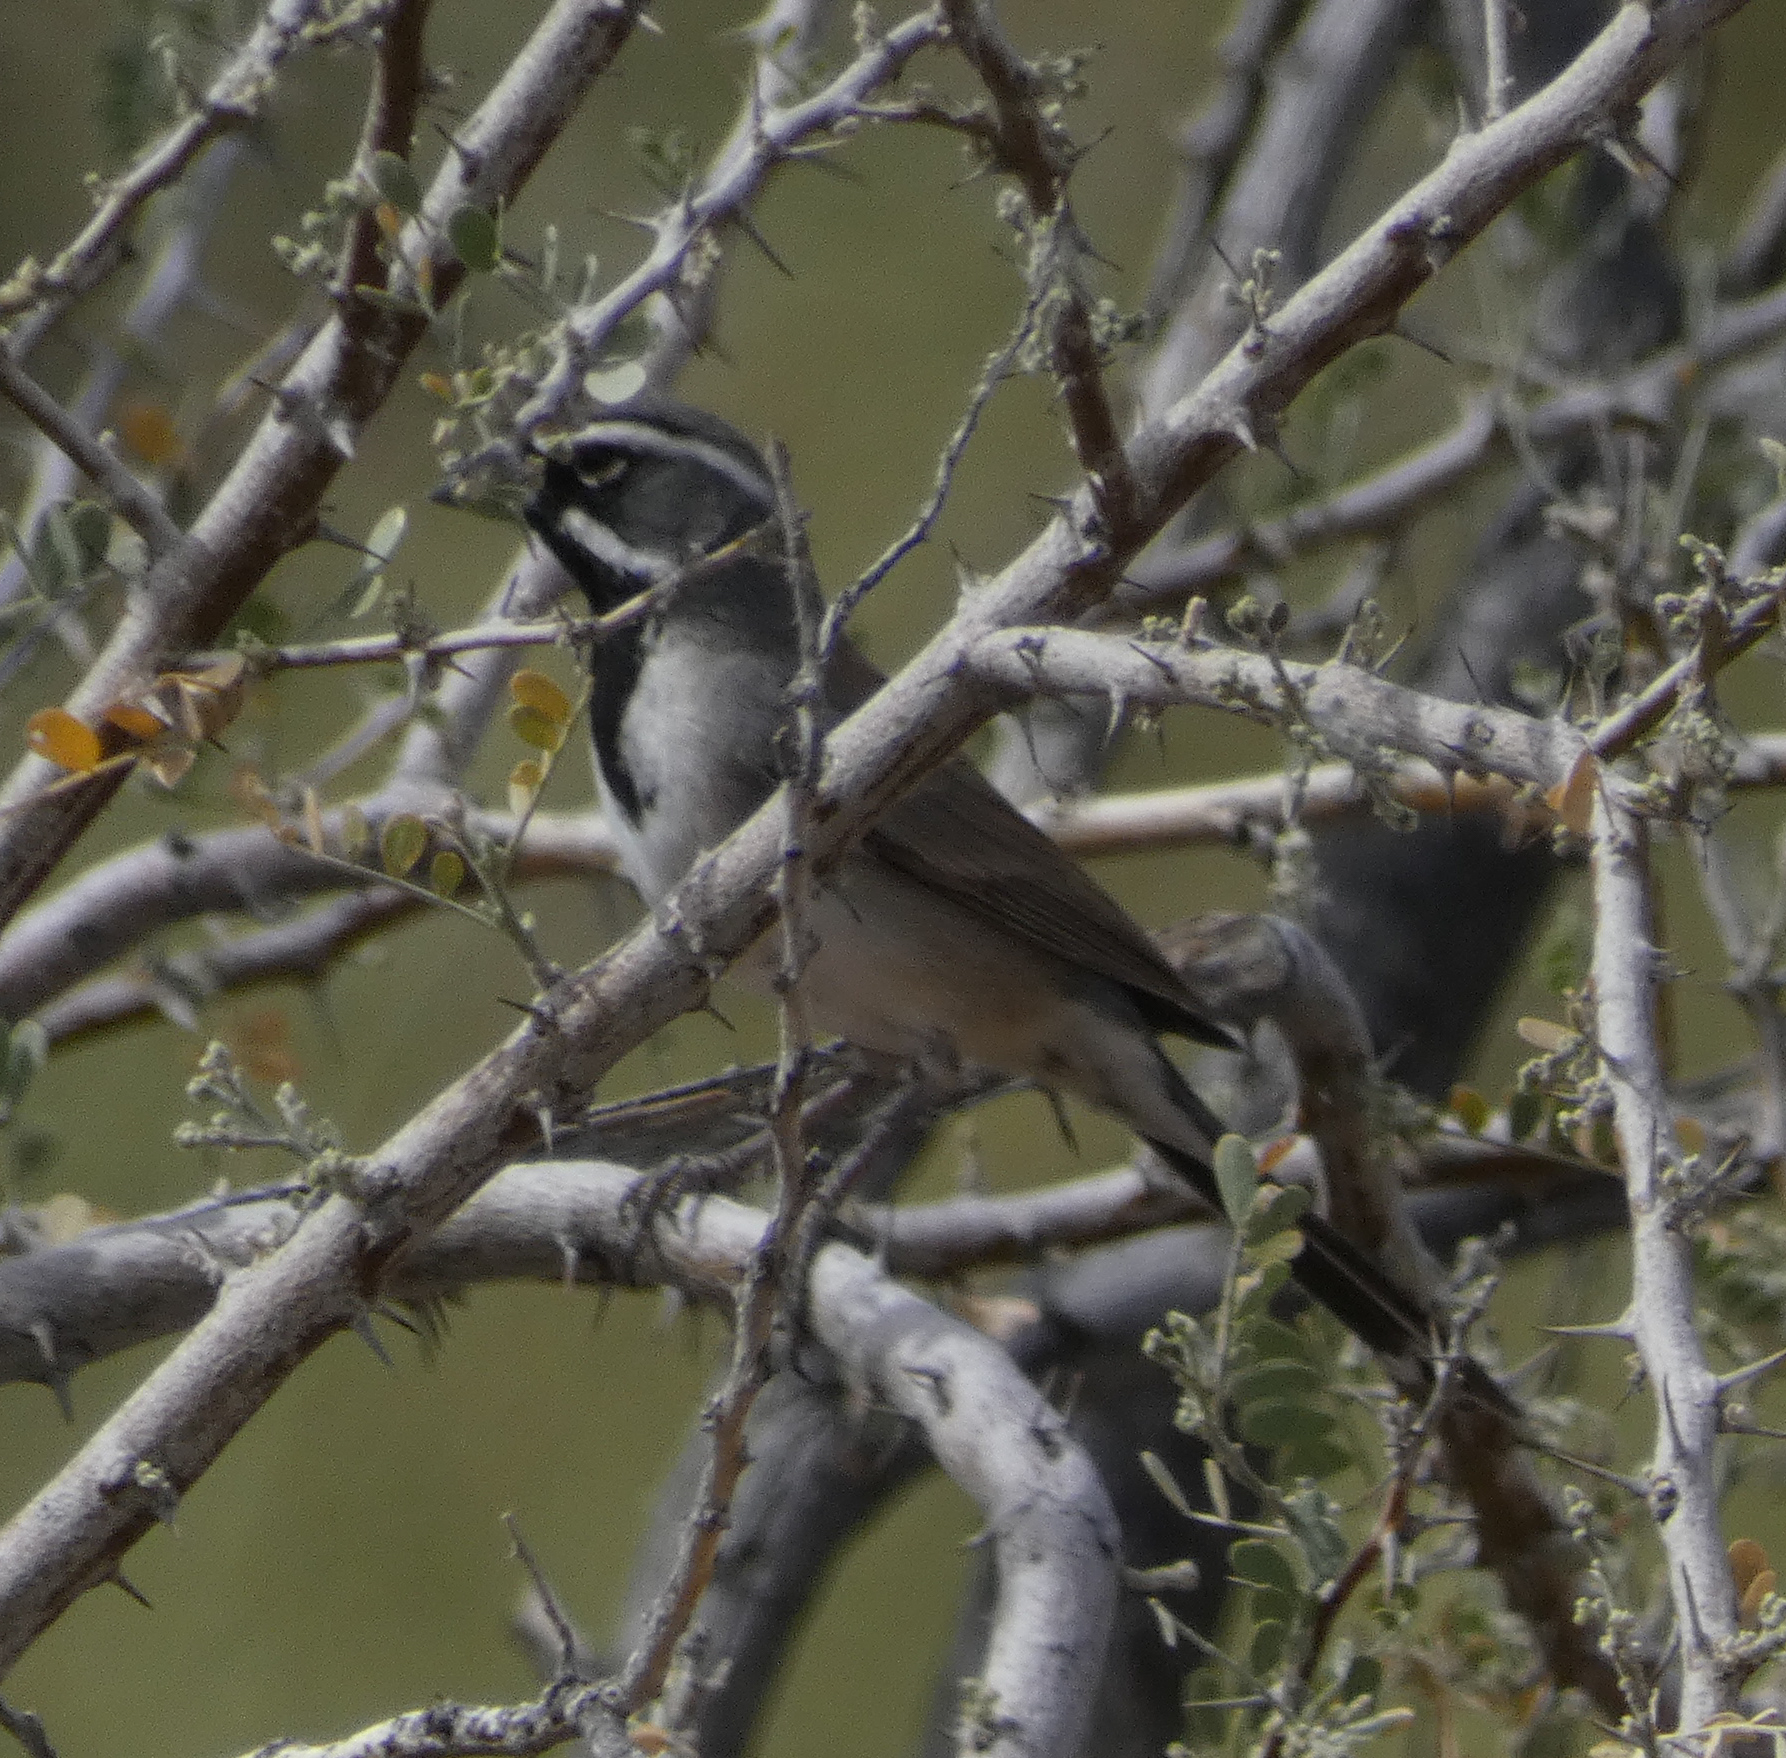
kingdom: Animalia
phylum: Chordata
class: Aves
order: Passeriformes
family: Passerellidae
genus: Amphispiza
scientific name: Amphispiza bilineata
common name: Black-throated sparrow
